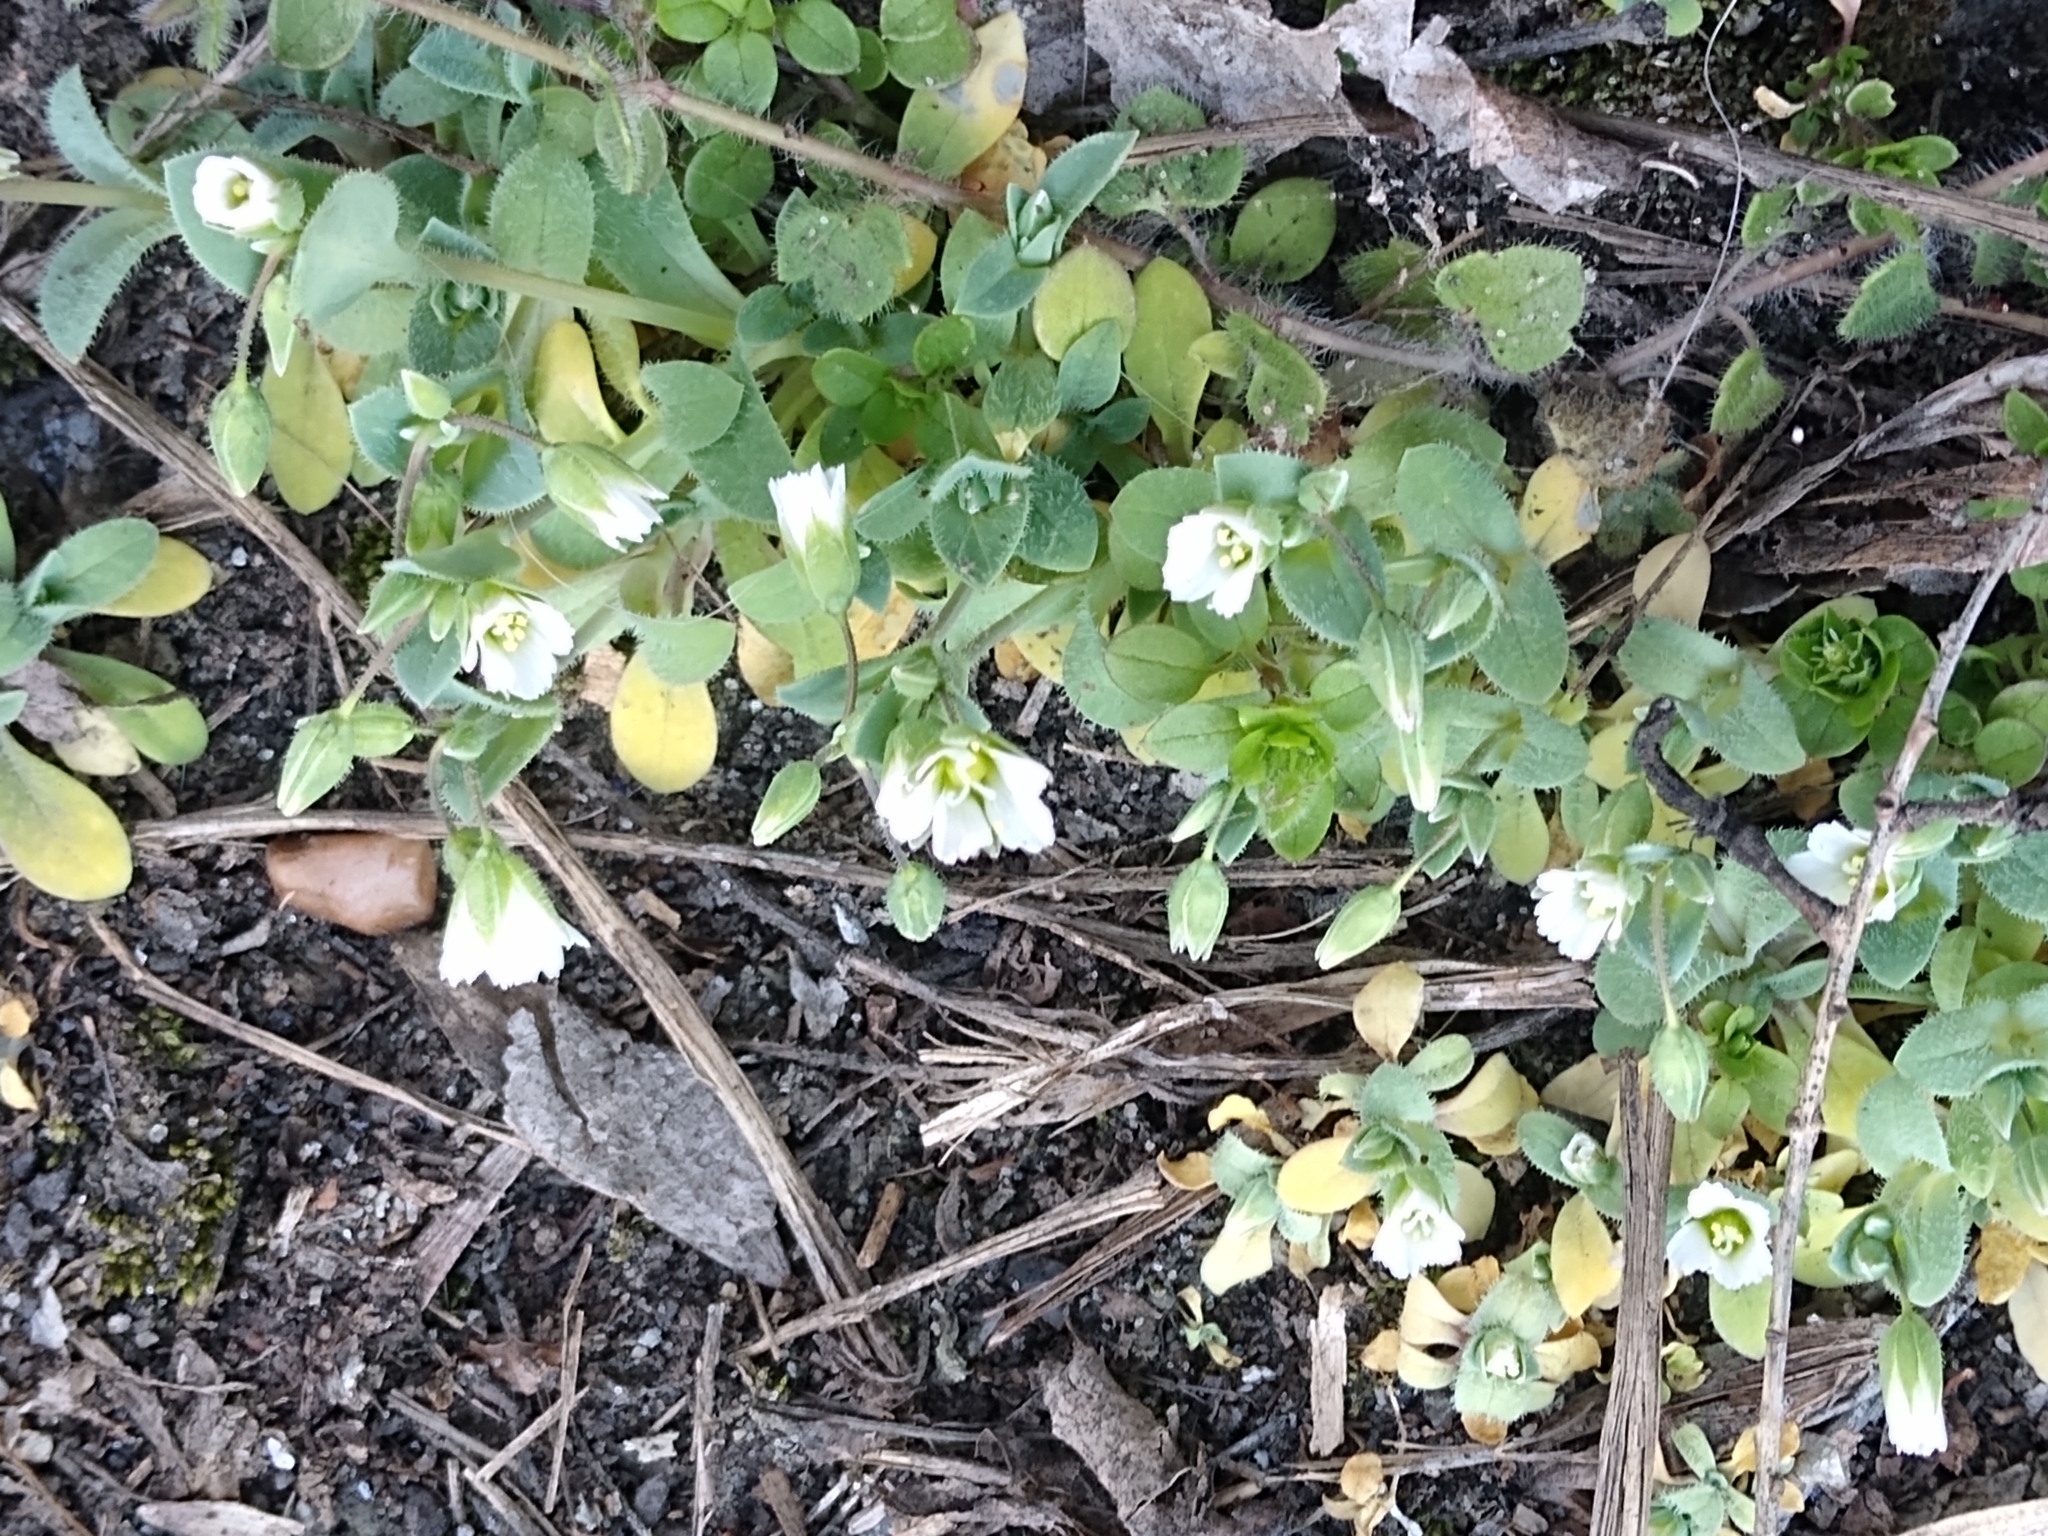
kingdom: Plantae
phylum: Tracheophyta
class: Magnoliopsida
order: Caryophyllales
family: Caryophyllaceae
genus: Holosteum
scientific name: Holosteum umbellatum
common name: Jagged chickweed
